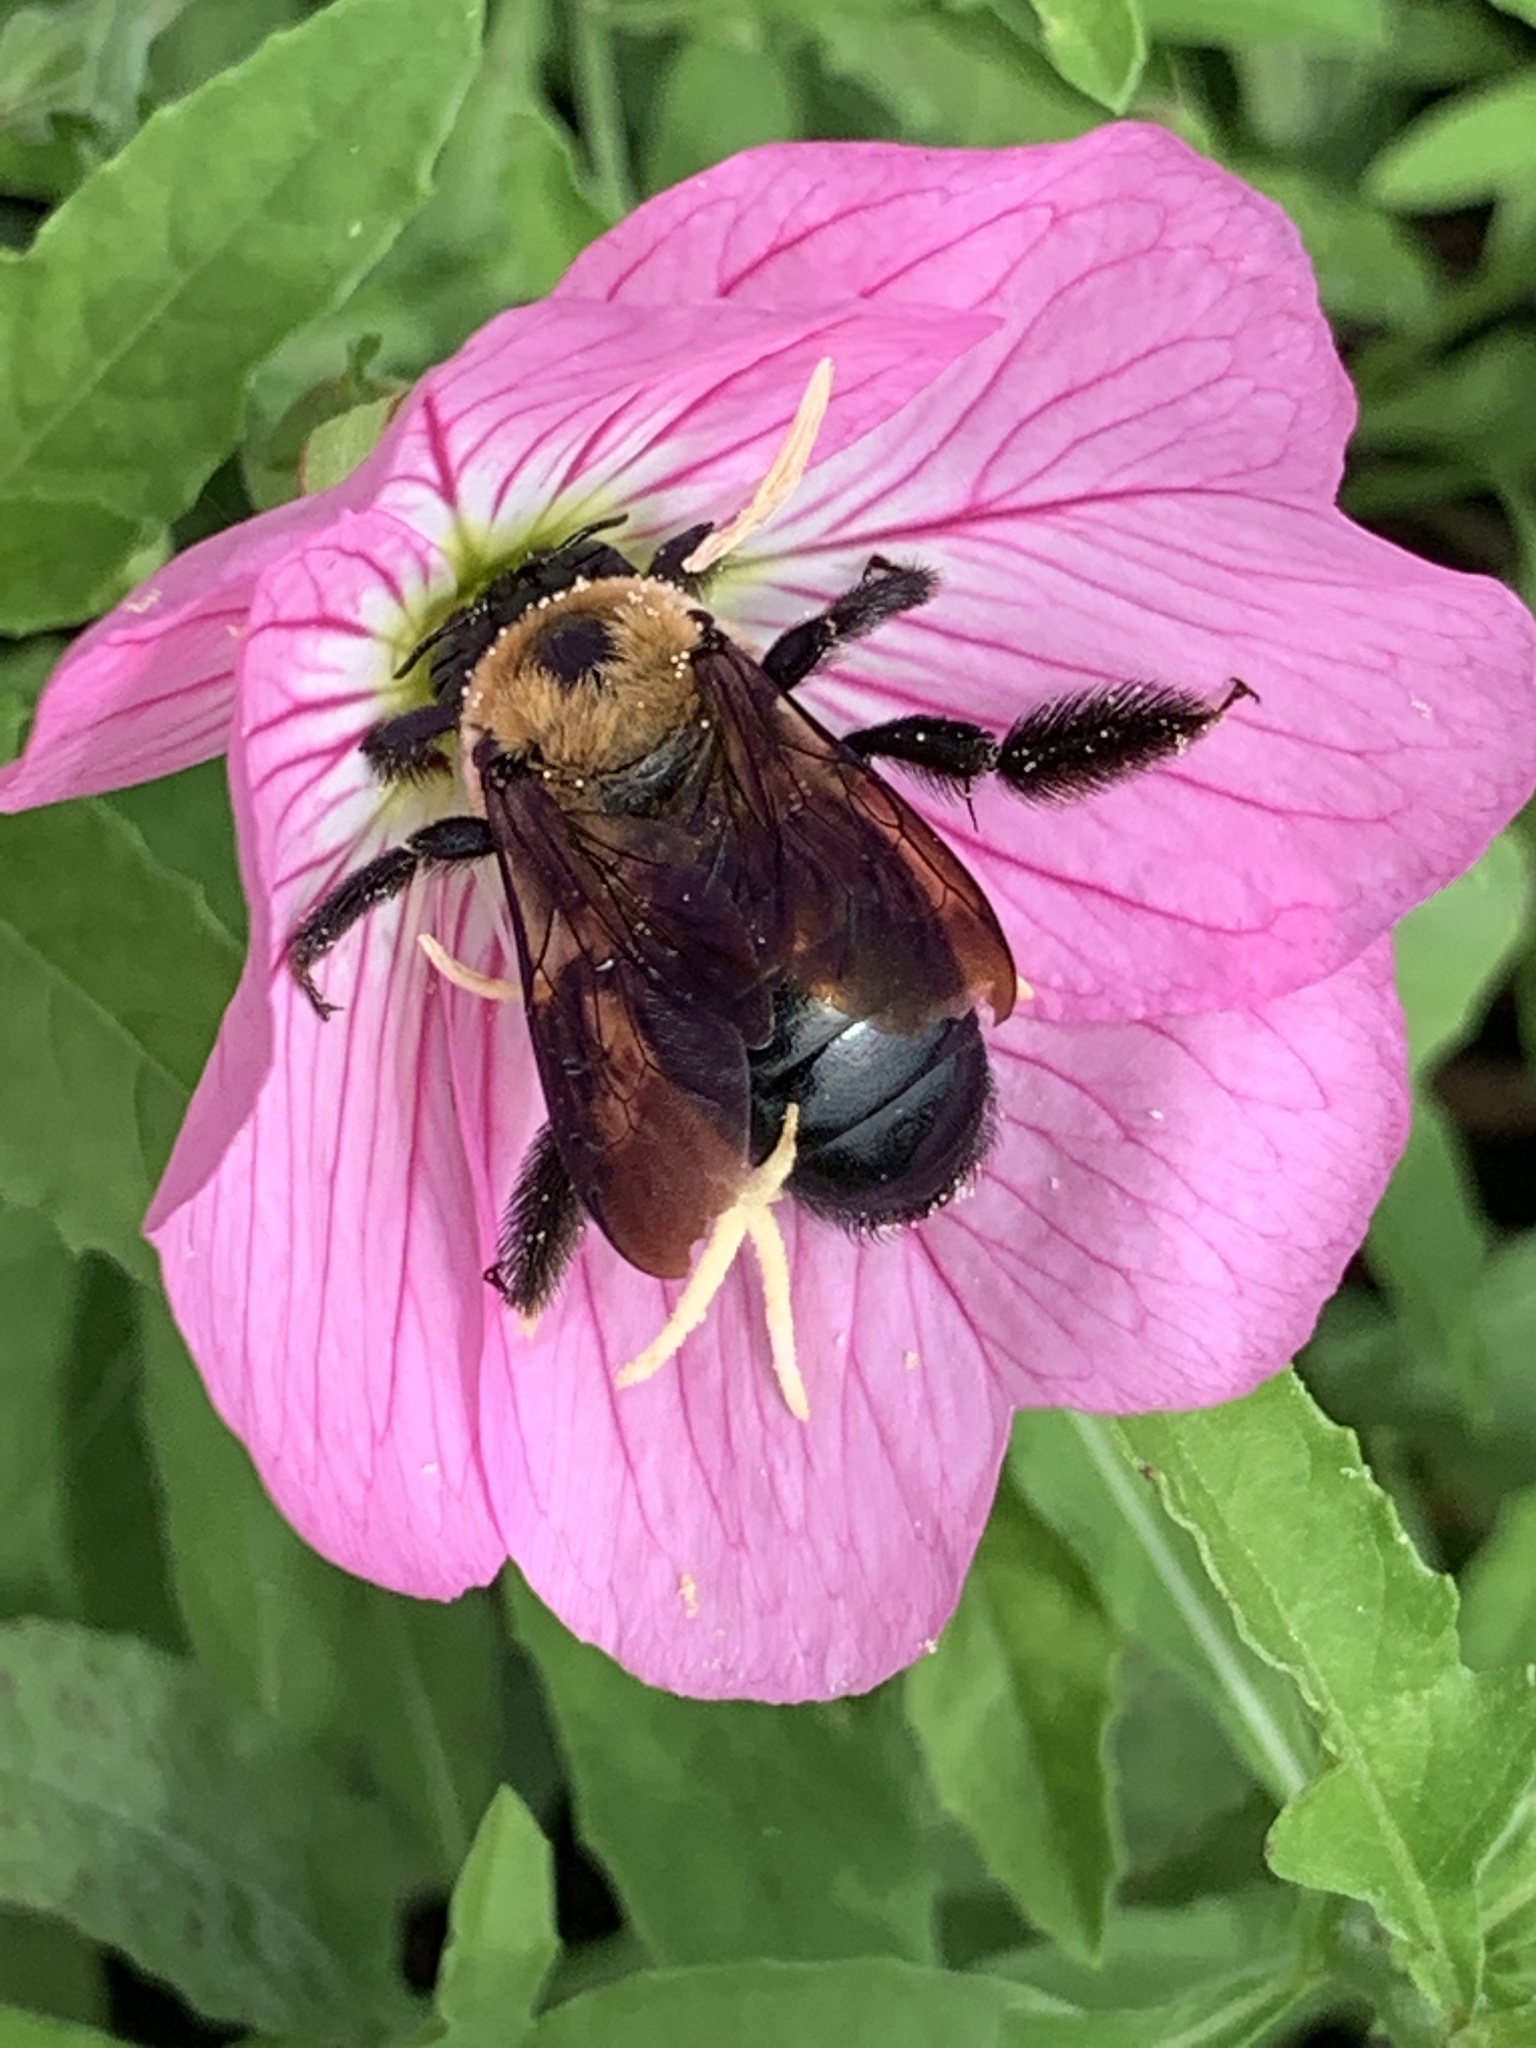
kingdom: Animalia
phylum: Arthropoda
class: Insecta
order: Hymenoptera
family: Apidae
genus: Xylocopa
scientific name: Xylocopa virginica
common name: Carpenter bee
